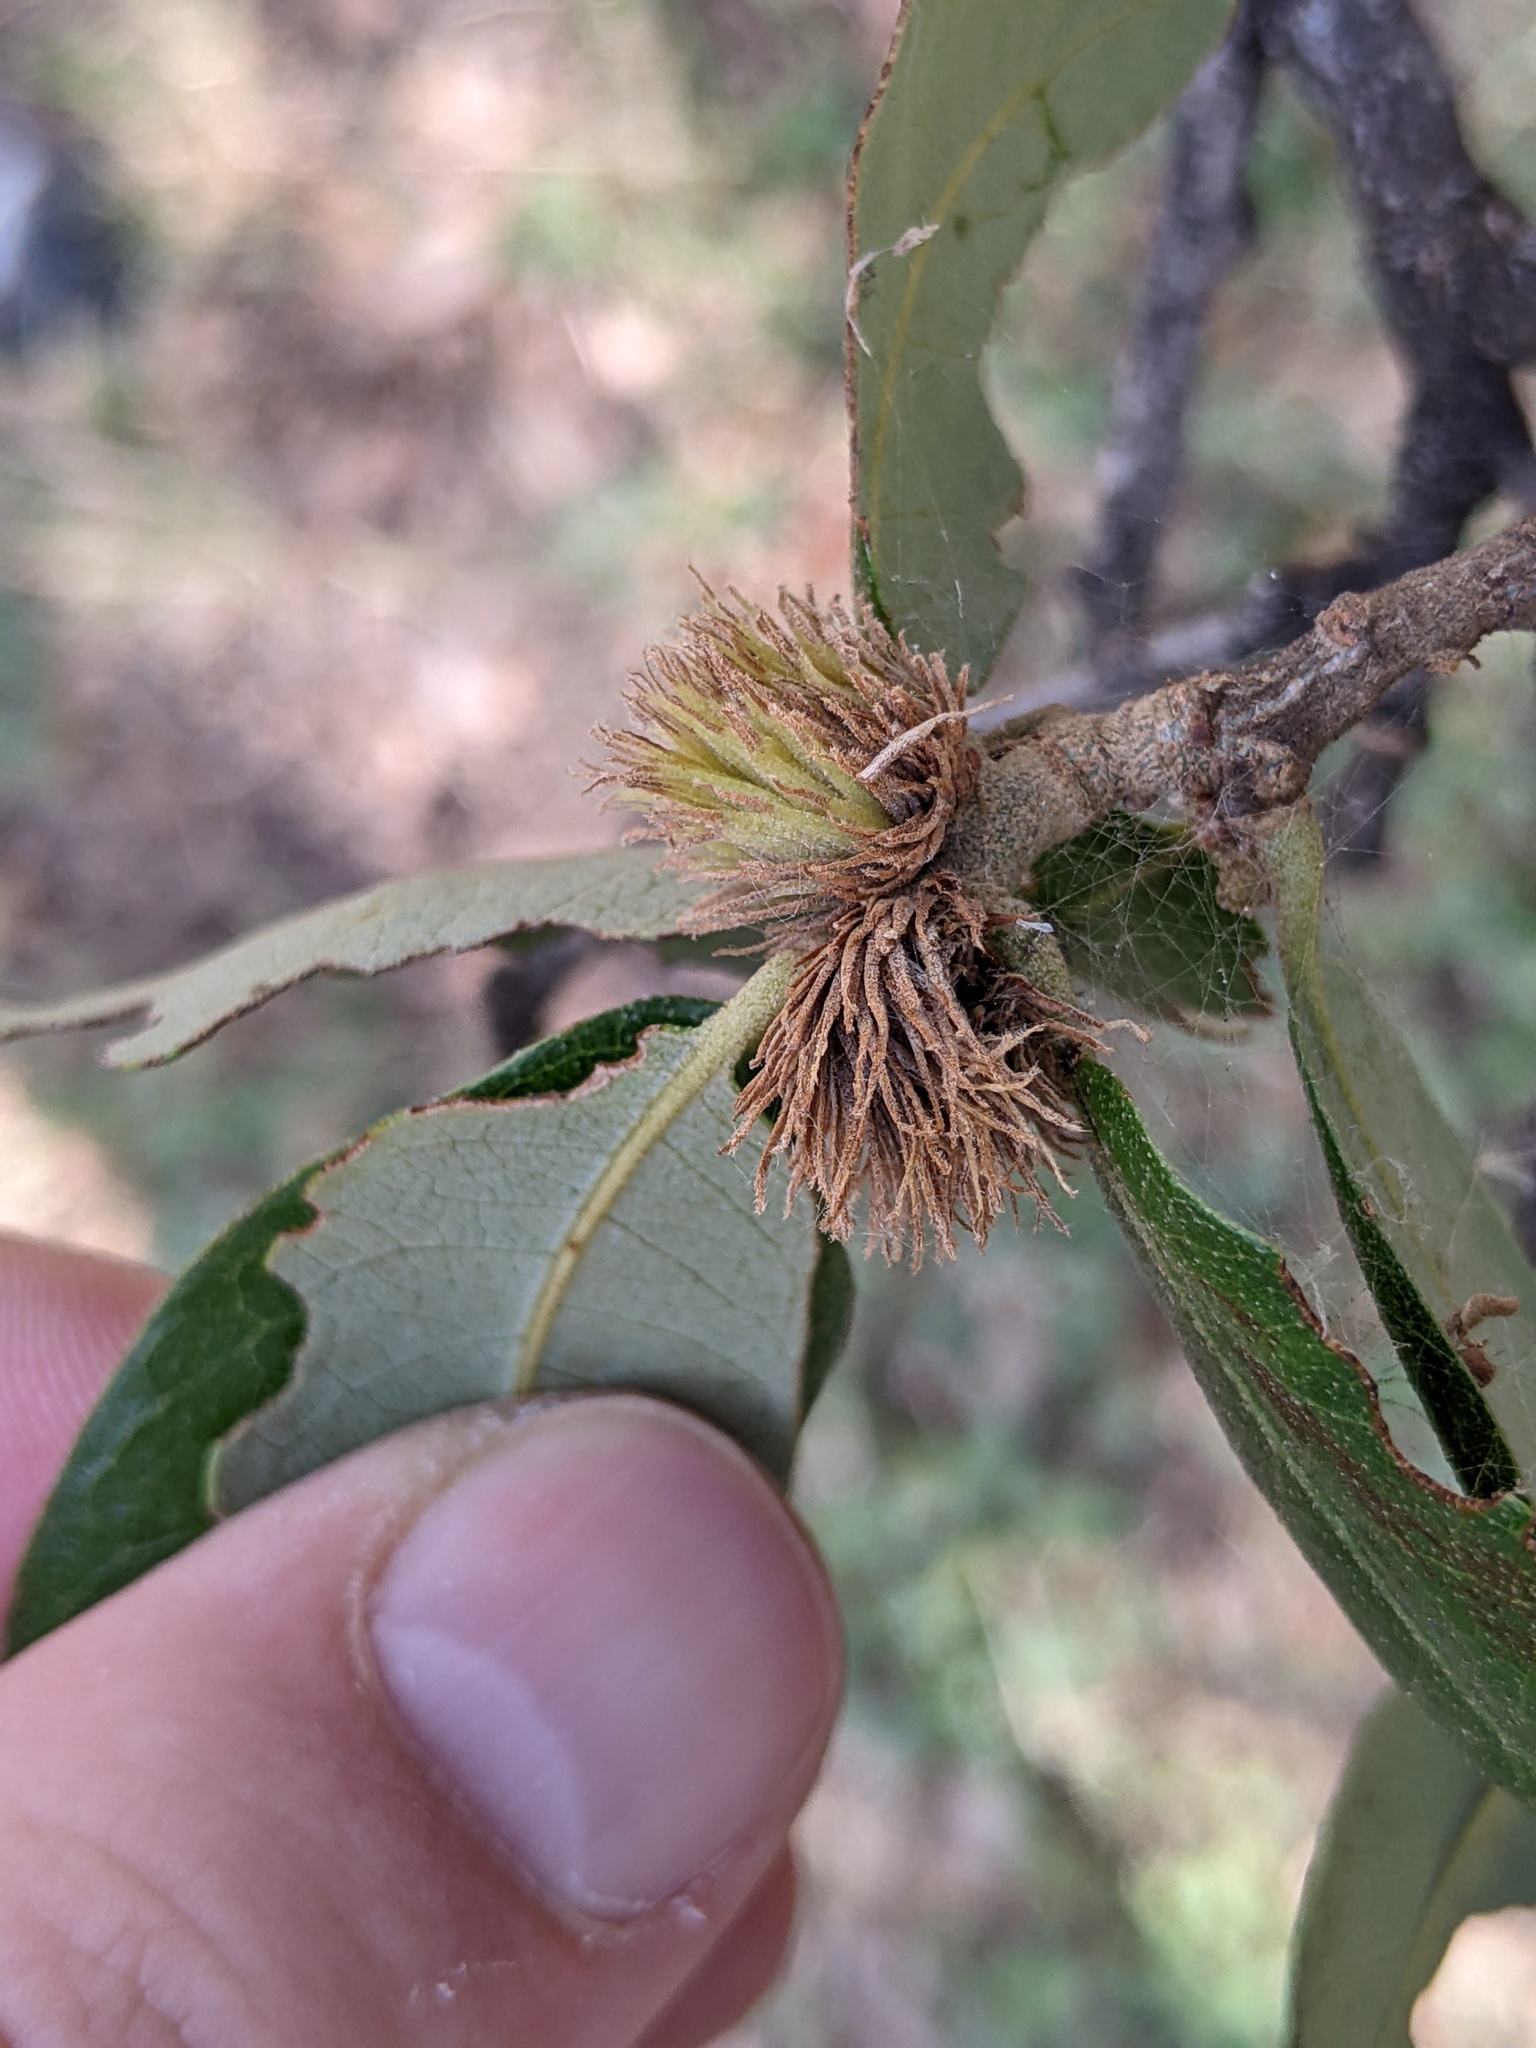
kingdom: Animalia
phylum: Arthropoda
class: Insecta
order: Hymenoptera
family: Cynipidae
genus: Andricus
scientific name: Andricus quercusfoliatus
